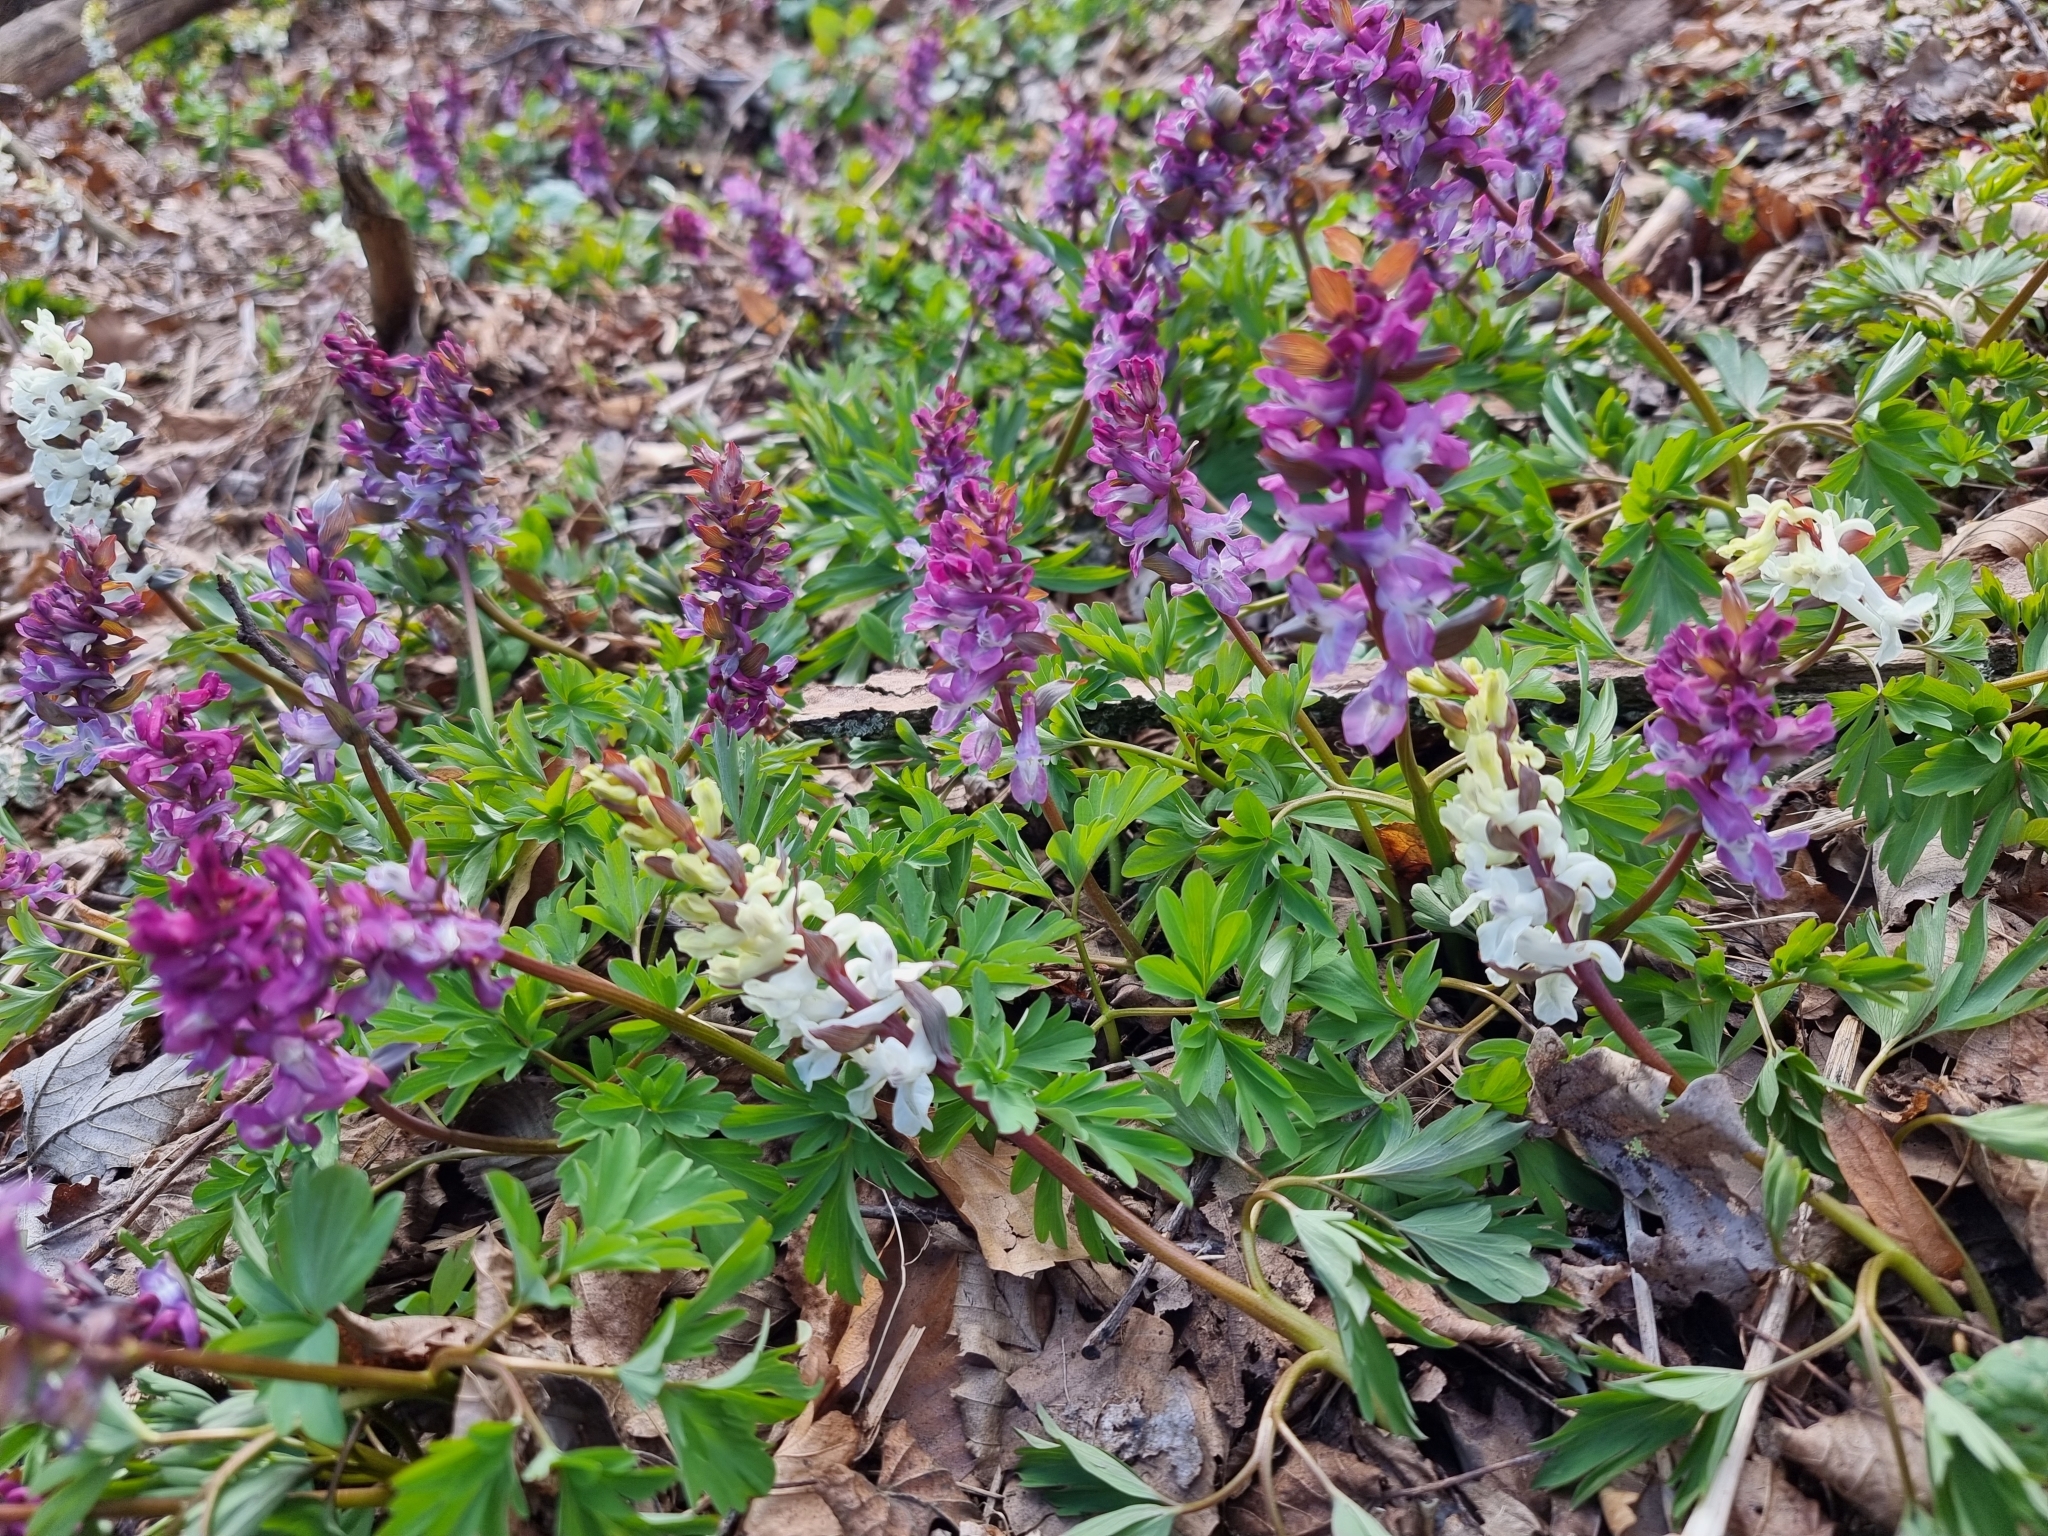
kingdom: Plantae
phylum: Tracheophyta
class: Magnoliopsida
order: Ranunculales
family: Papaveraceae
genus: Corydalis
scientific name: Corydalis cava
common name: Hollowroot
